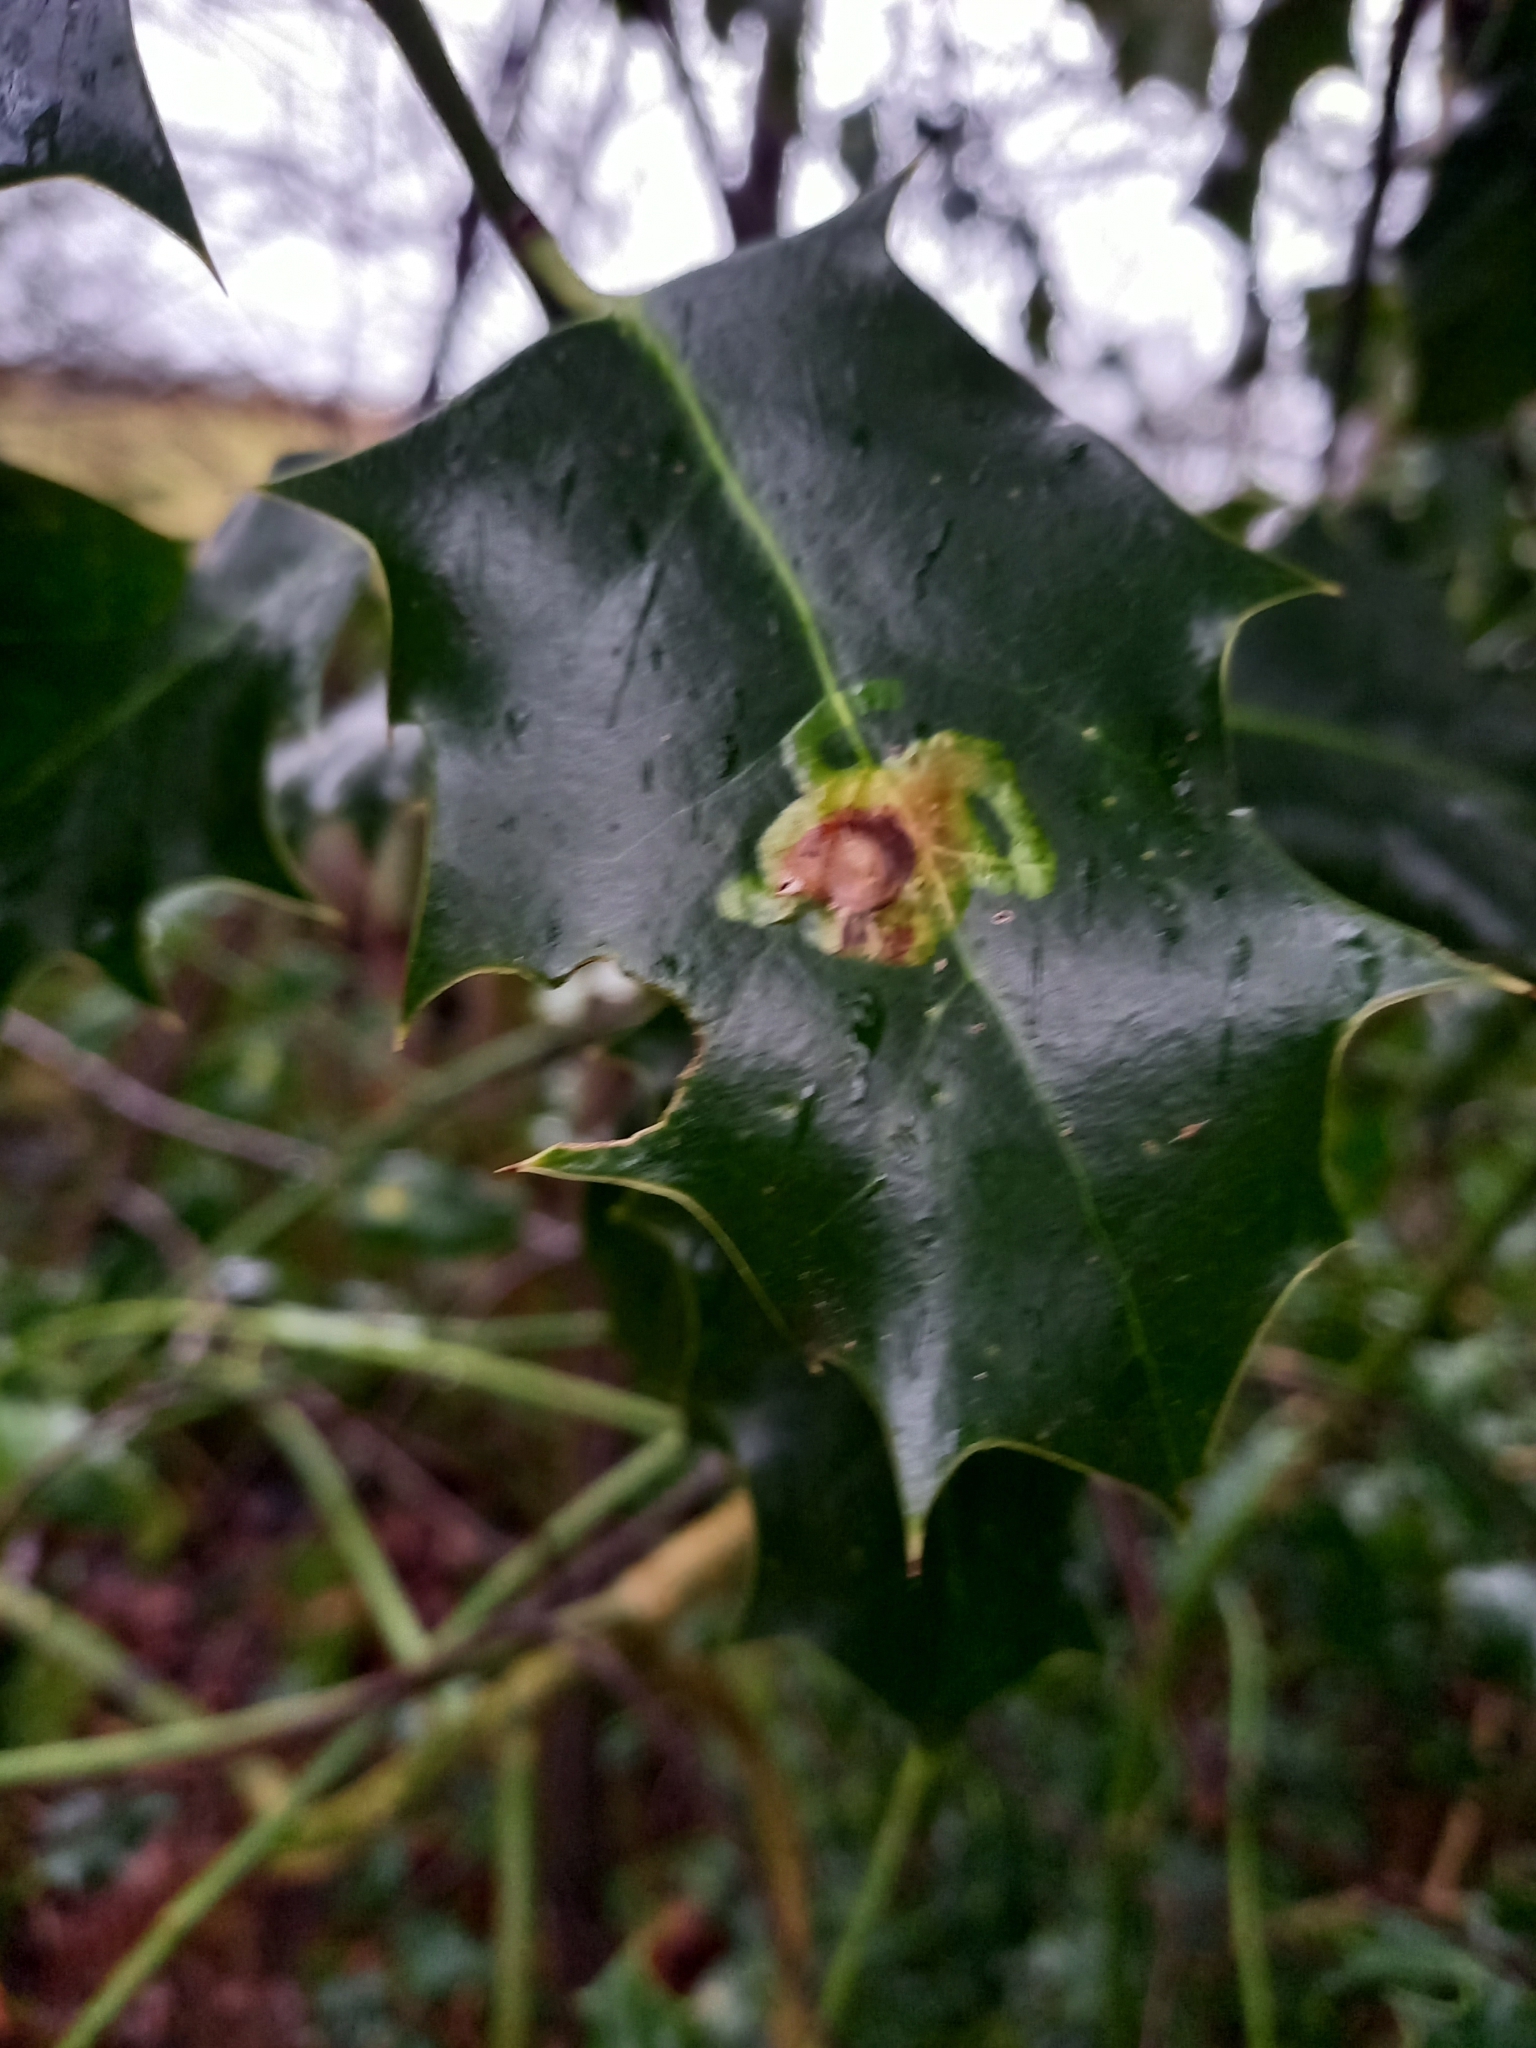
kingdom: Animalia
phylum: Arthropoda
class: Insecta
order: Diptera
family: Agromyzidae
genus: Phytomyza
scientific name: Phytomyza ilicis
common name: Holly leafminer
